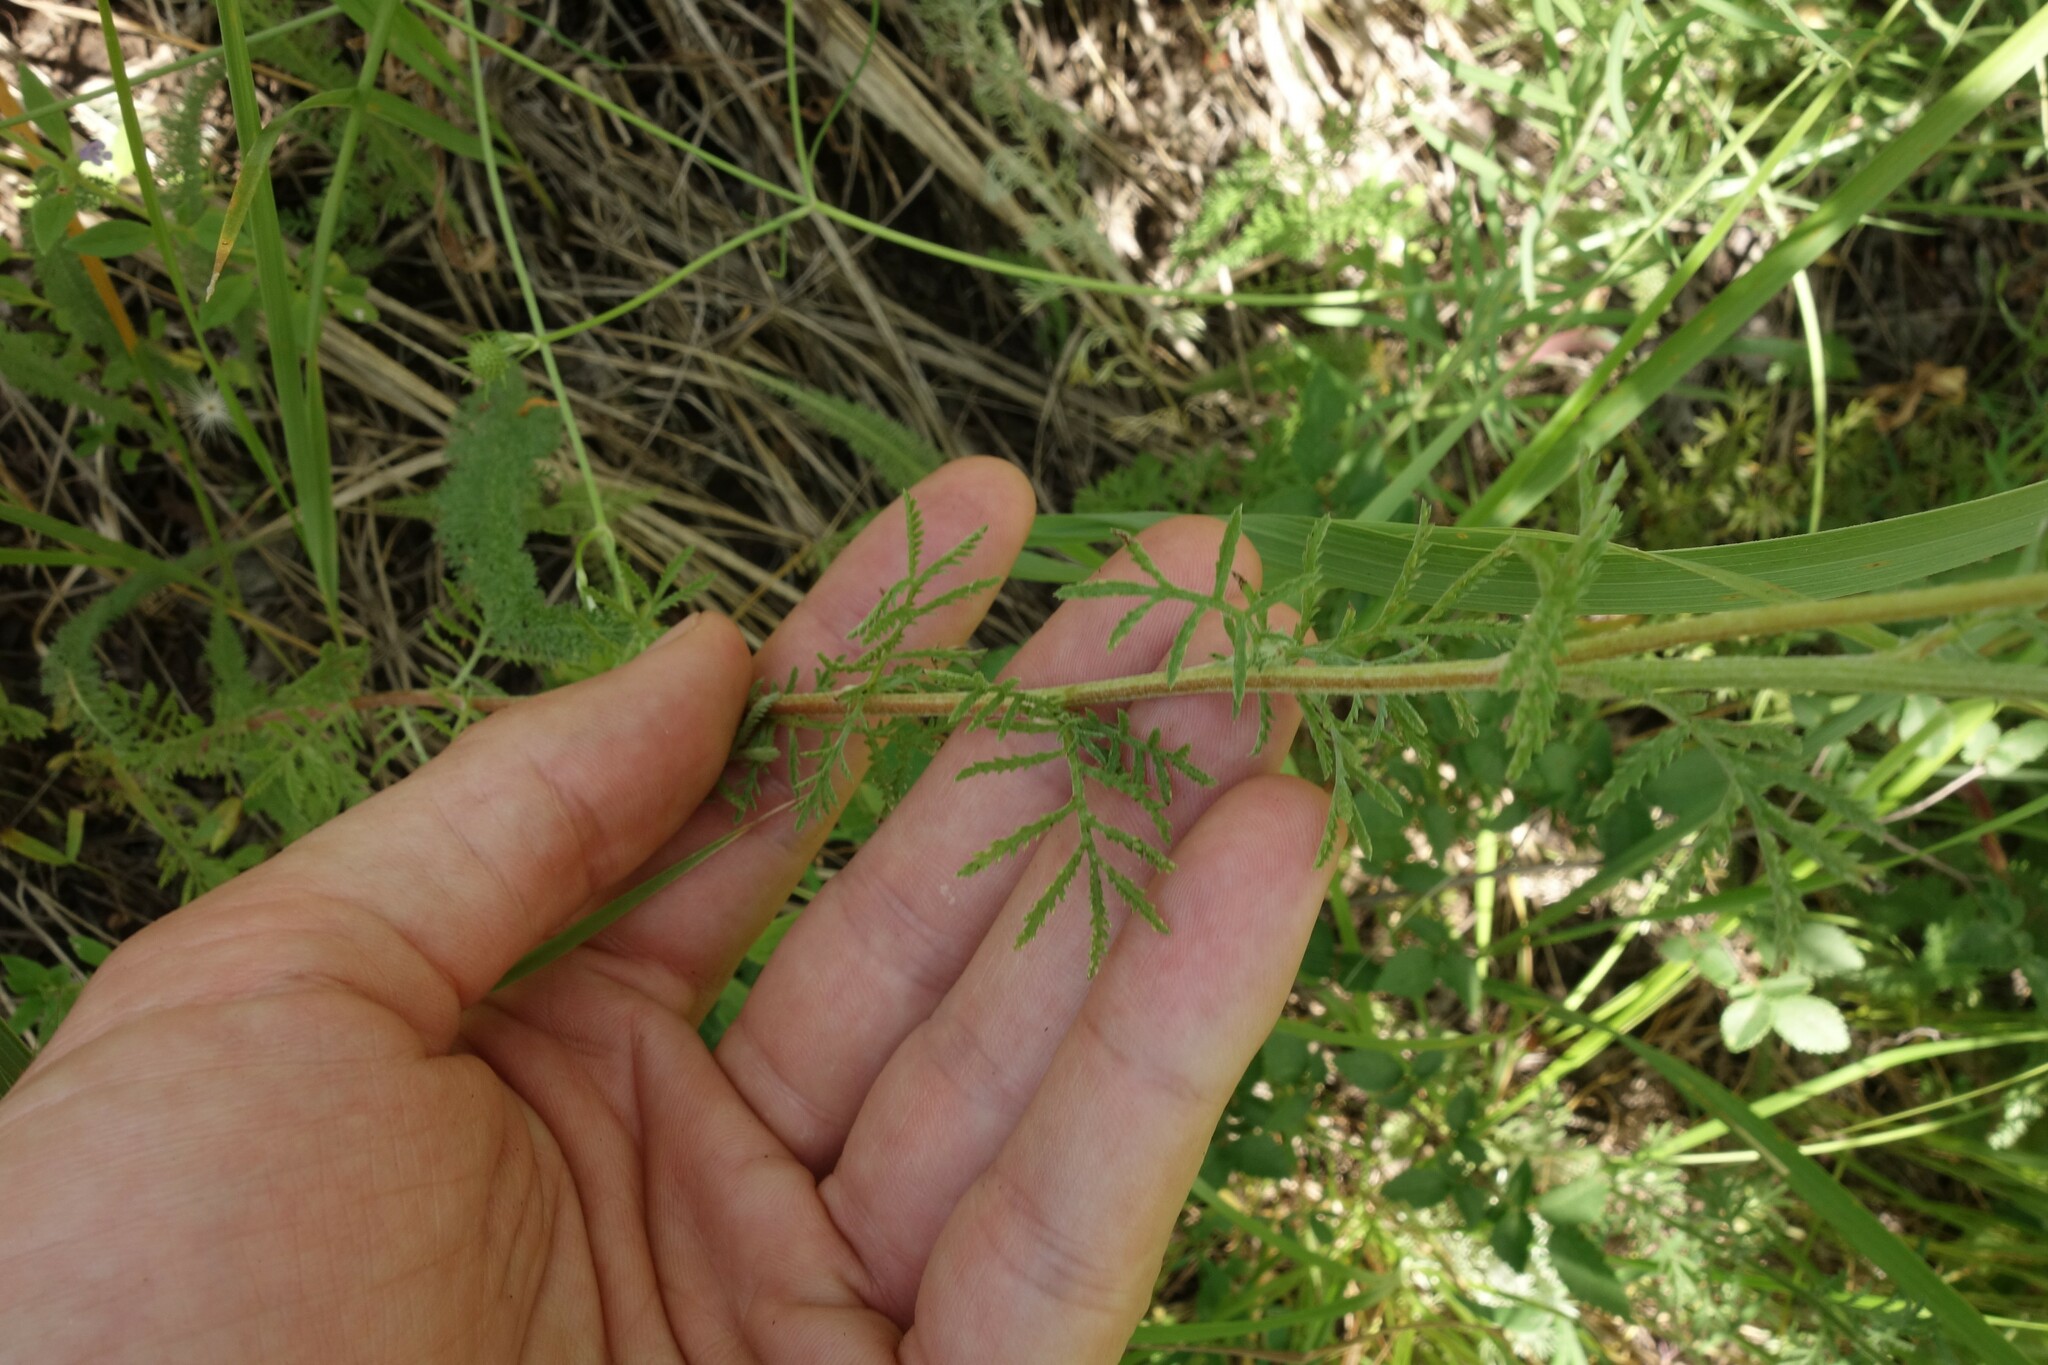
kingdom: Plantae
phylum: Tracheophyta
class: Magnoliopsida
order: Asterales
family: Asteraceae
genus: Cota
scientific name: Cota tinctoria
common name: Golden chamomile
